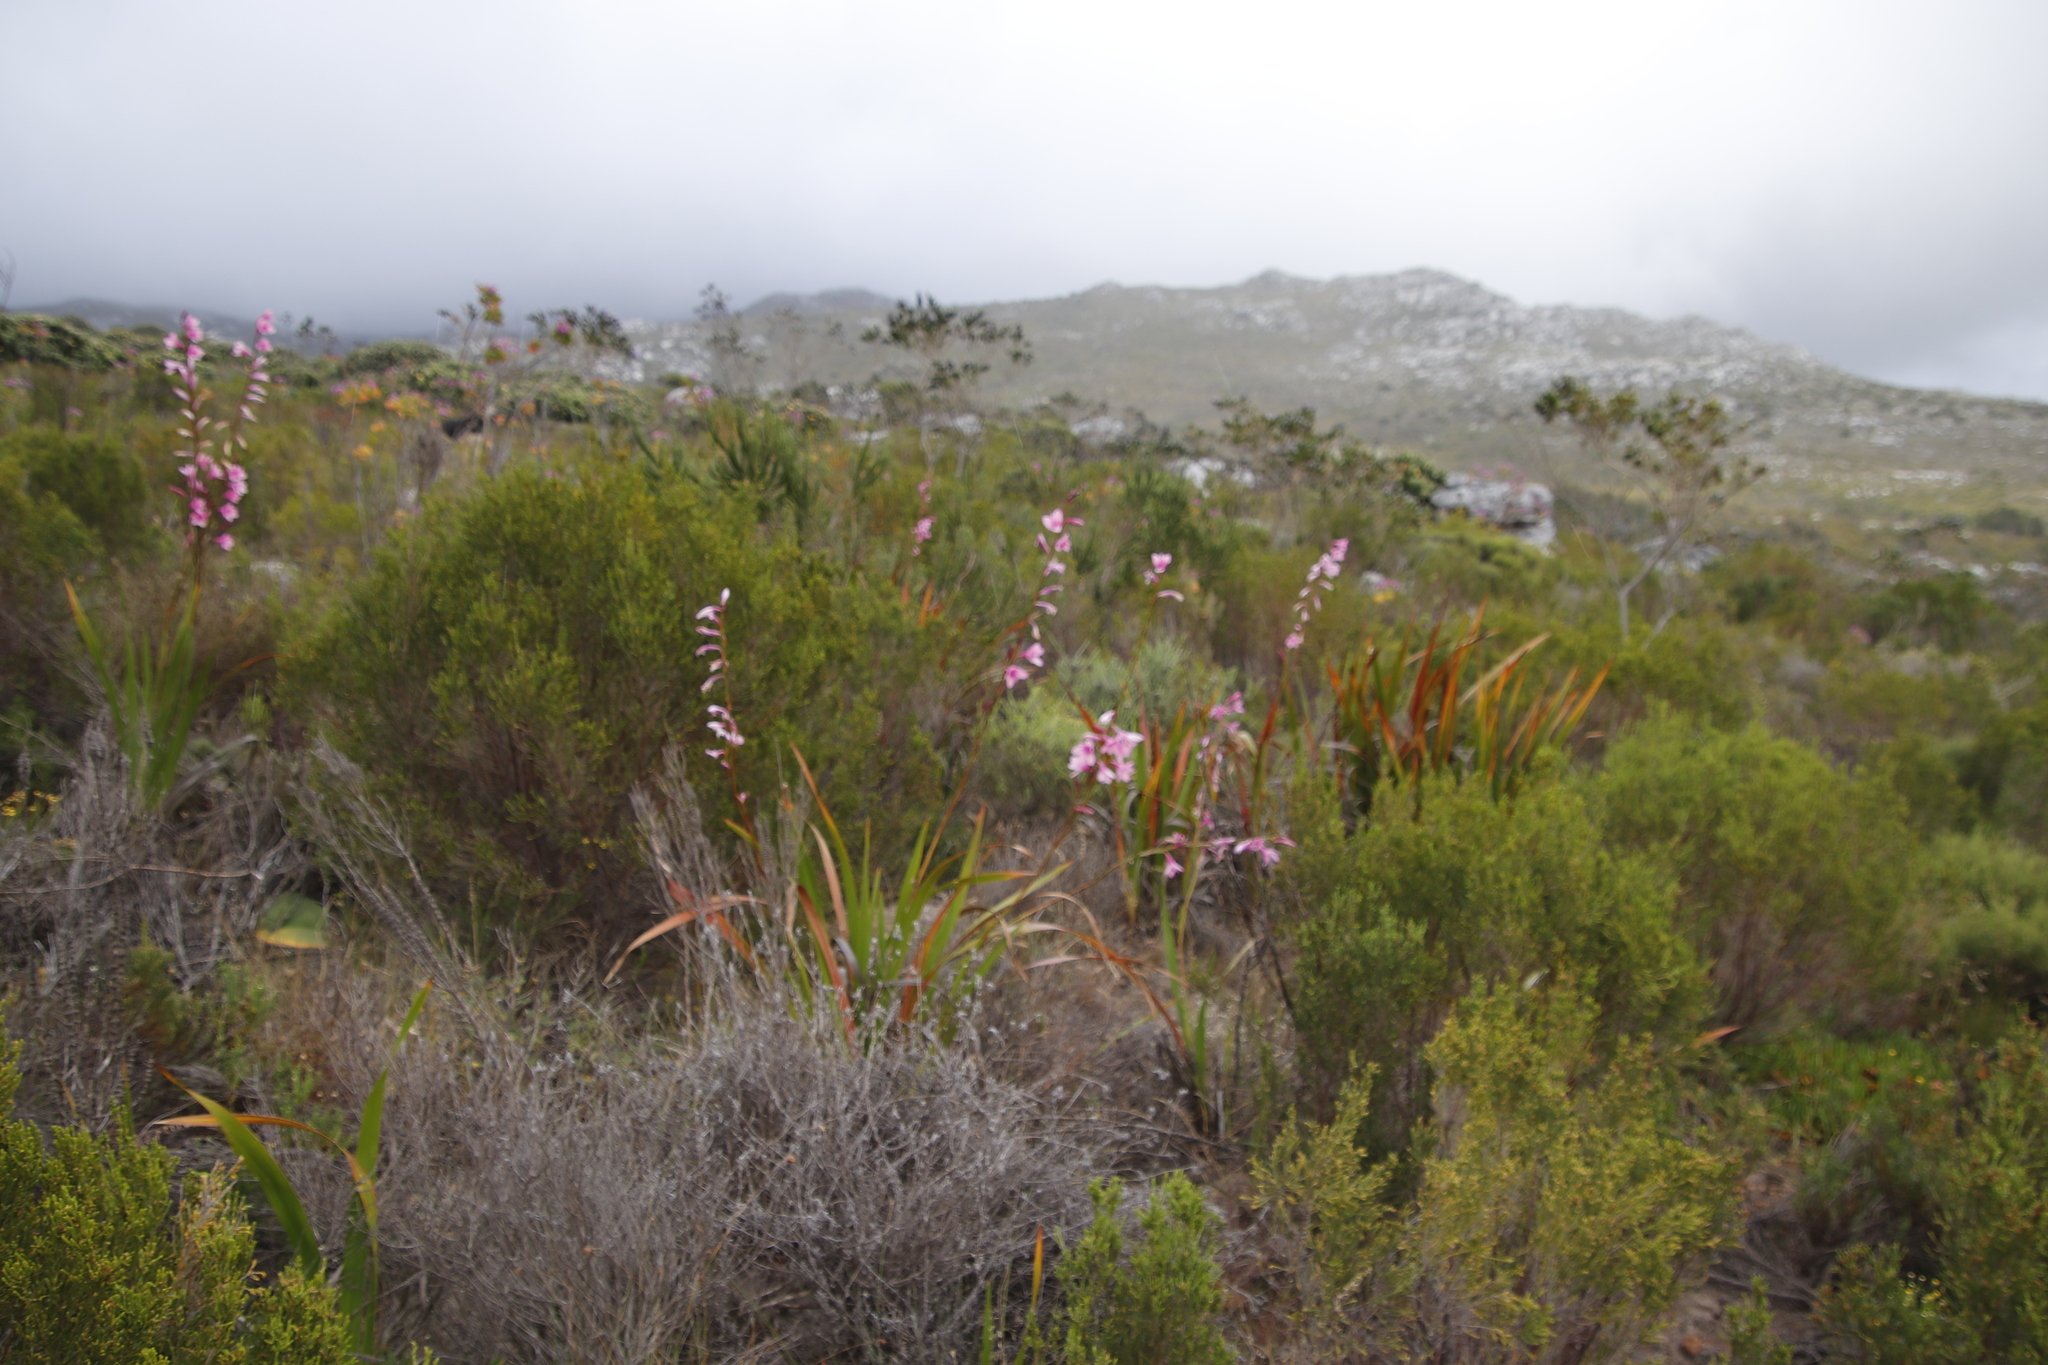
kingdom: Plantae
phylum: Tracheophyta
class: Liliopsida
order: Asparagales
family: Iridaceae
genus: Watsonia
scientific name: Watsonia borbonica
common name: Bugle-lily
